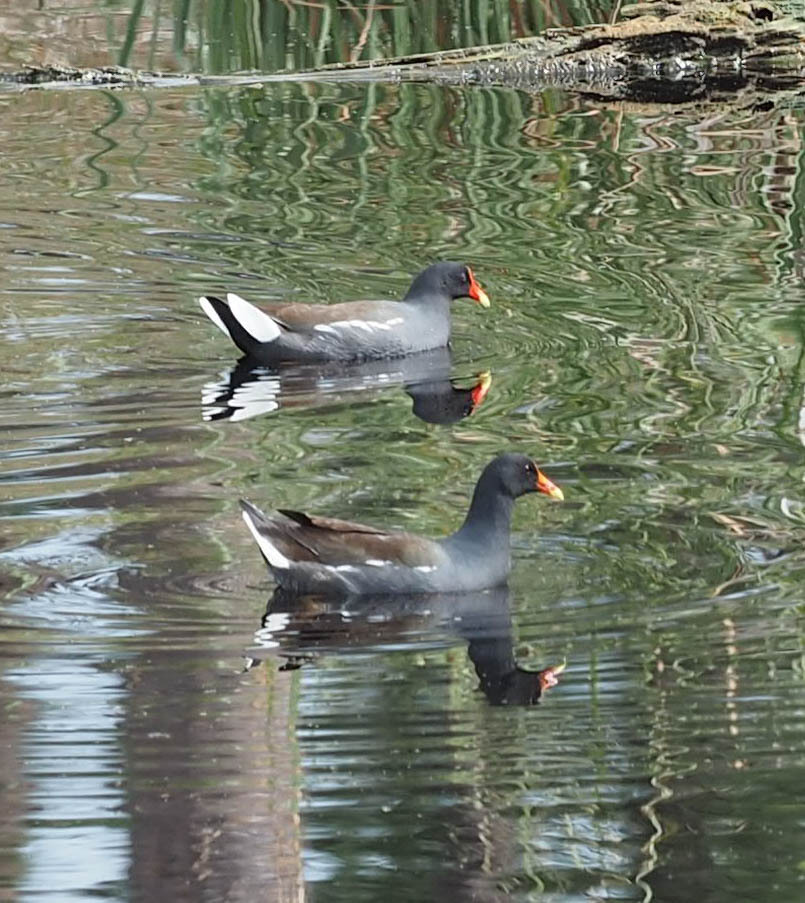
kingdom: Animalia
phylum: Chordata
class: Aves
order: Gruiformes
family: Rallidae
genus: Gallinula
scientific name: Gallinula chloropus
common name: Common moorhen
